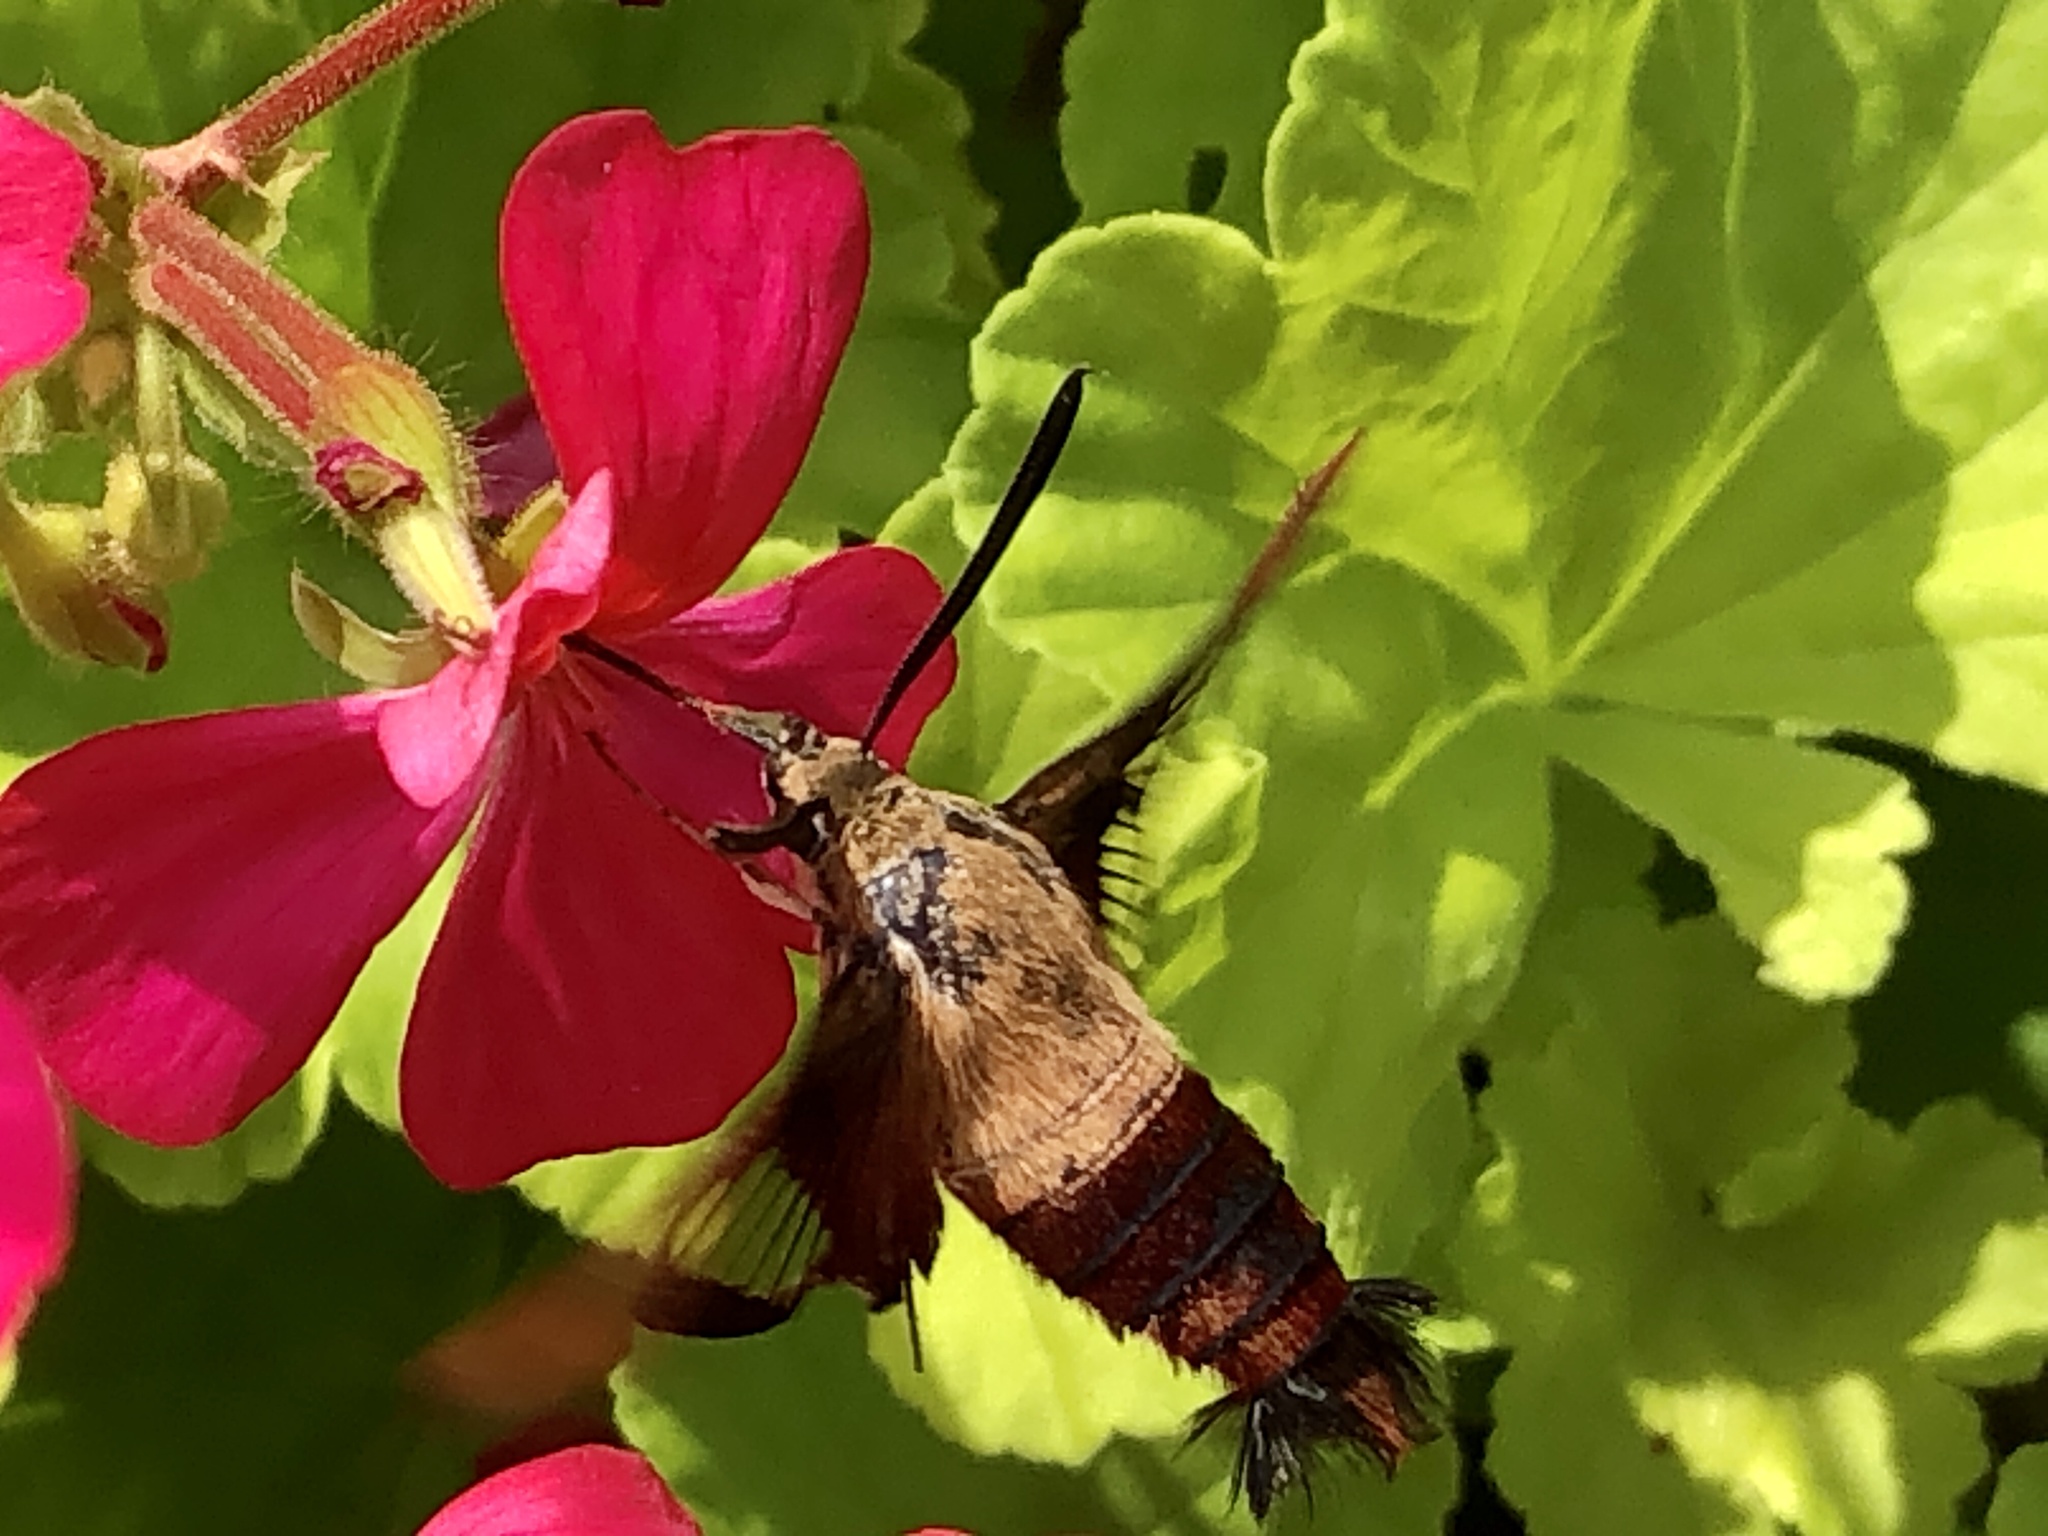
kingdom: Animalia
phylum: Arthropoda
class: Insecta
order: Lepidoptera
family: Sphingidae
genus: Hemaris
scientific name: Hemaris thysbe
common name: Common clear-wing
